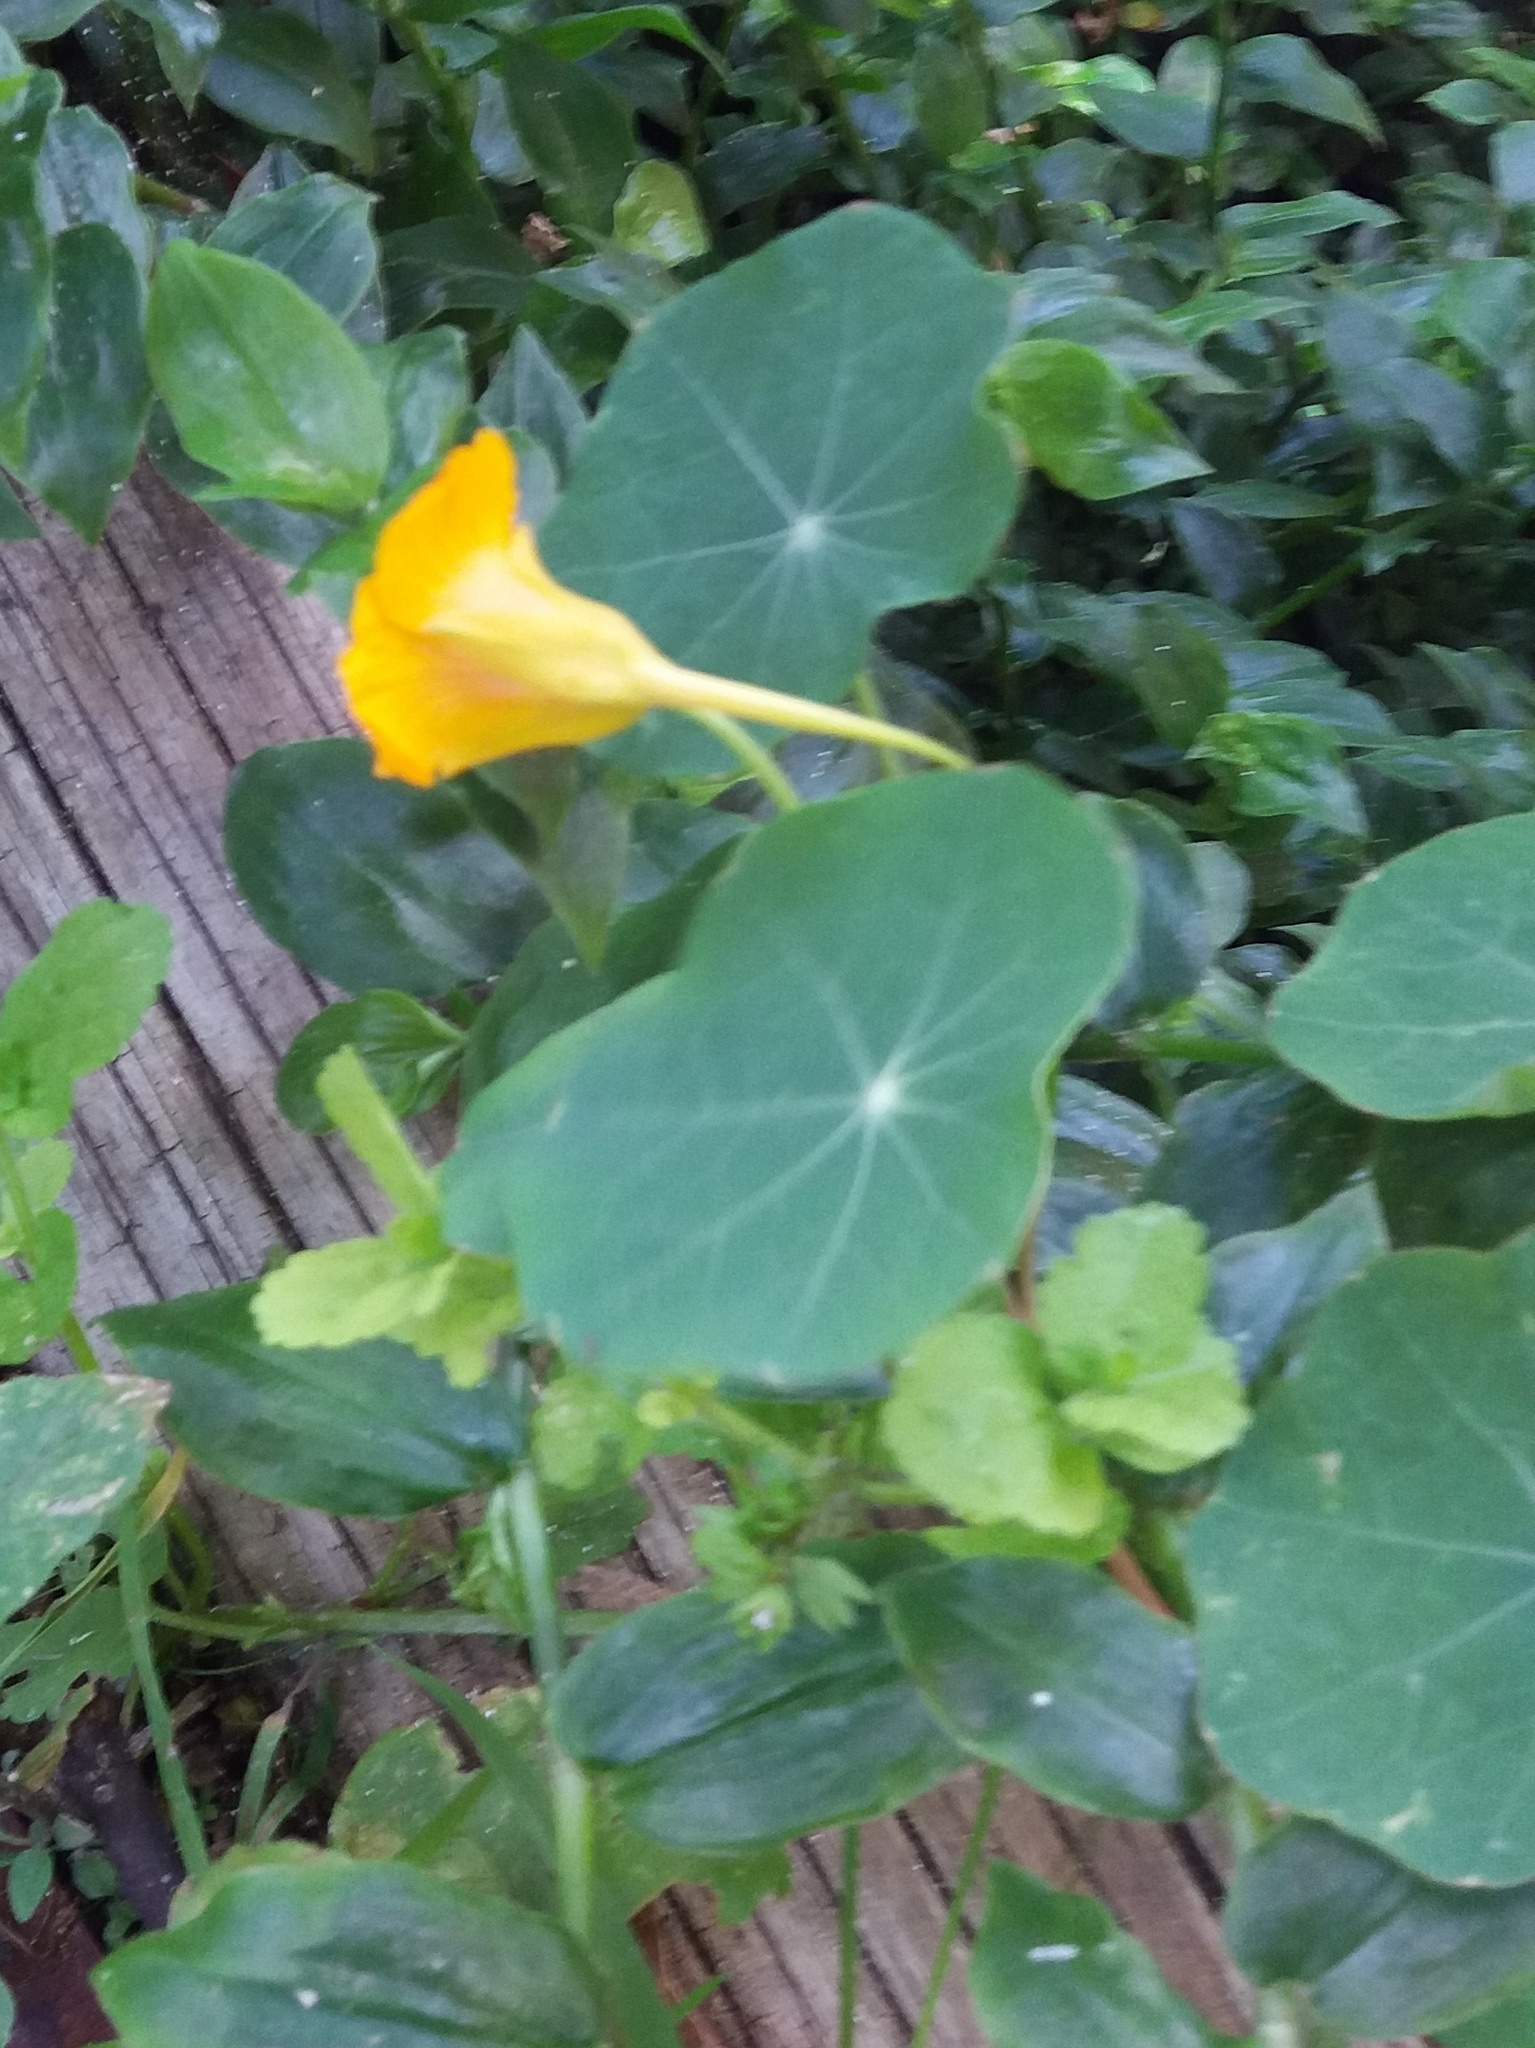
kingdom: Plantae
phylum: Tracheophyta
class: Magnoliopsida
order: Brassicales
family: Tropaeolaceae
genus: Tropaeolum
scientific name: Tropaeolum majus
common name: Nasturtium
